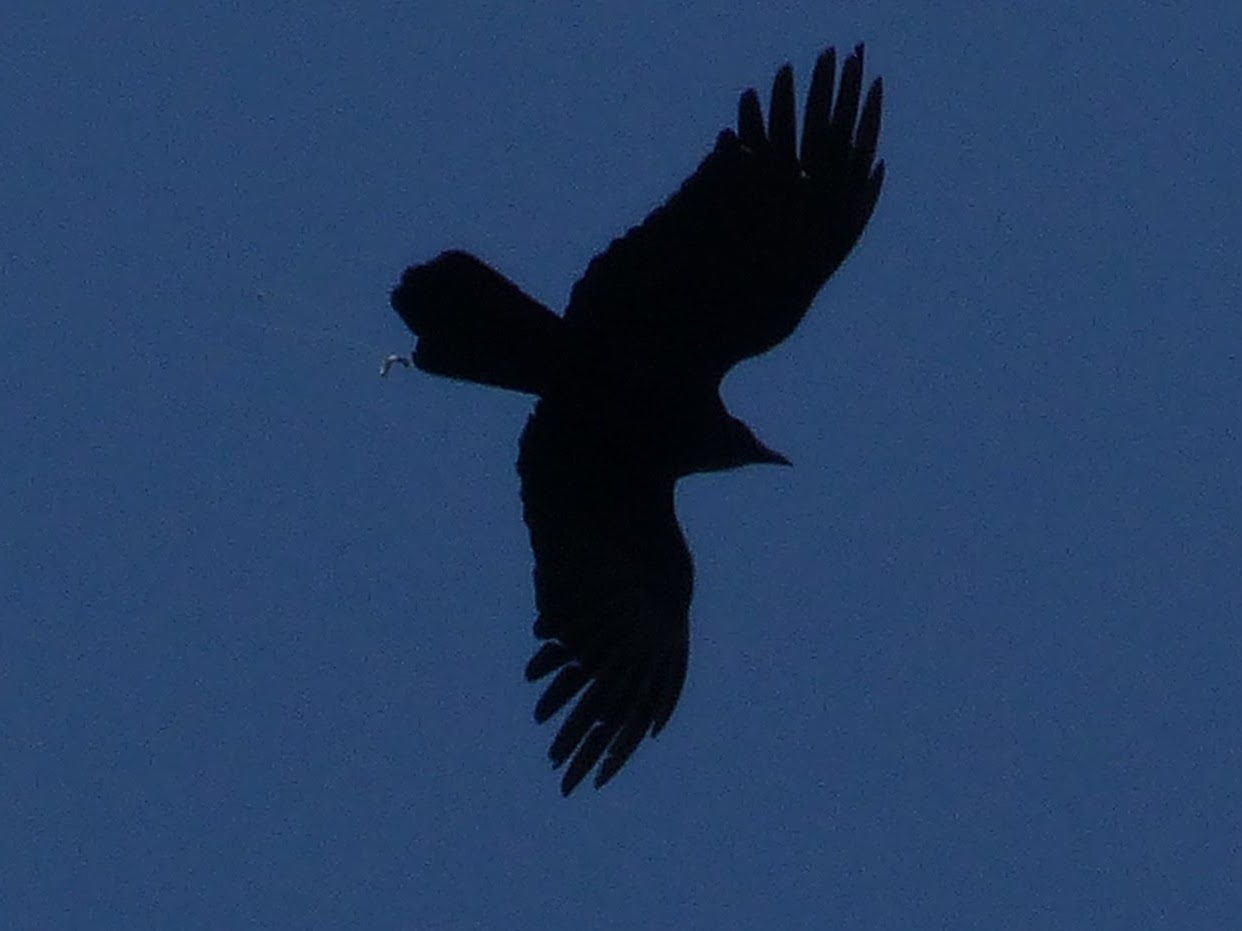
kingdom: Animalia
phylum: Chordata
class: Aves
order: Passeriformes
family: Corvidae
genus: Corvus
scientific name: Corvus corax
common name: Common raven
